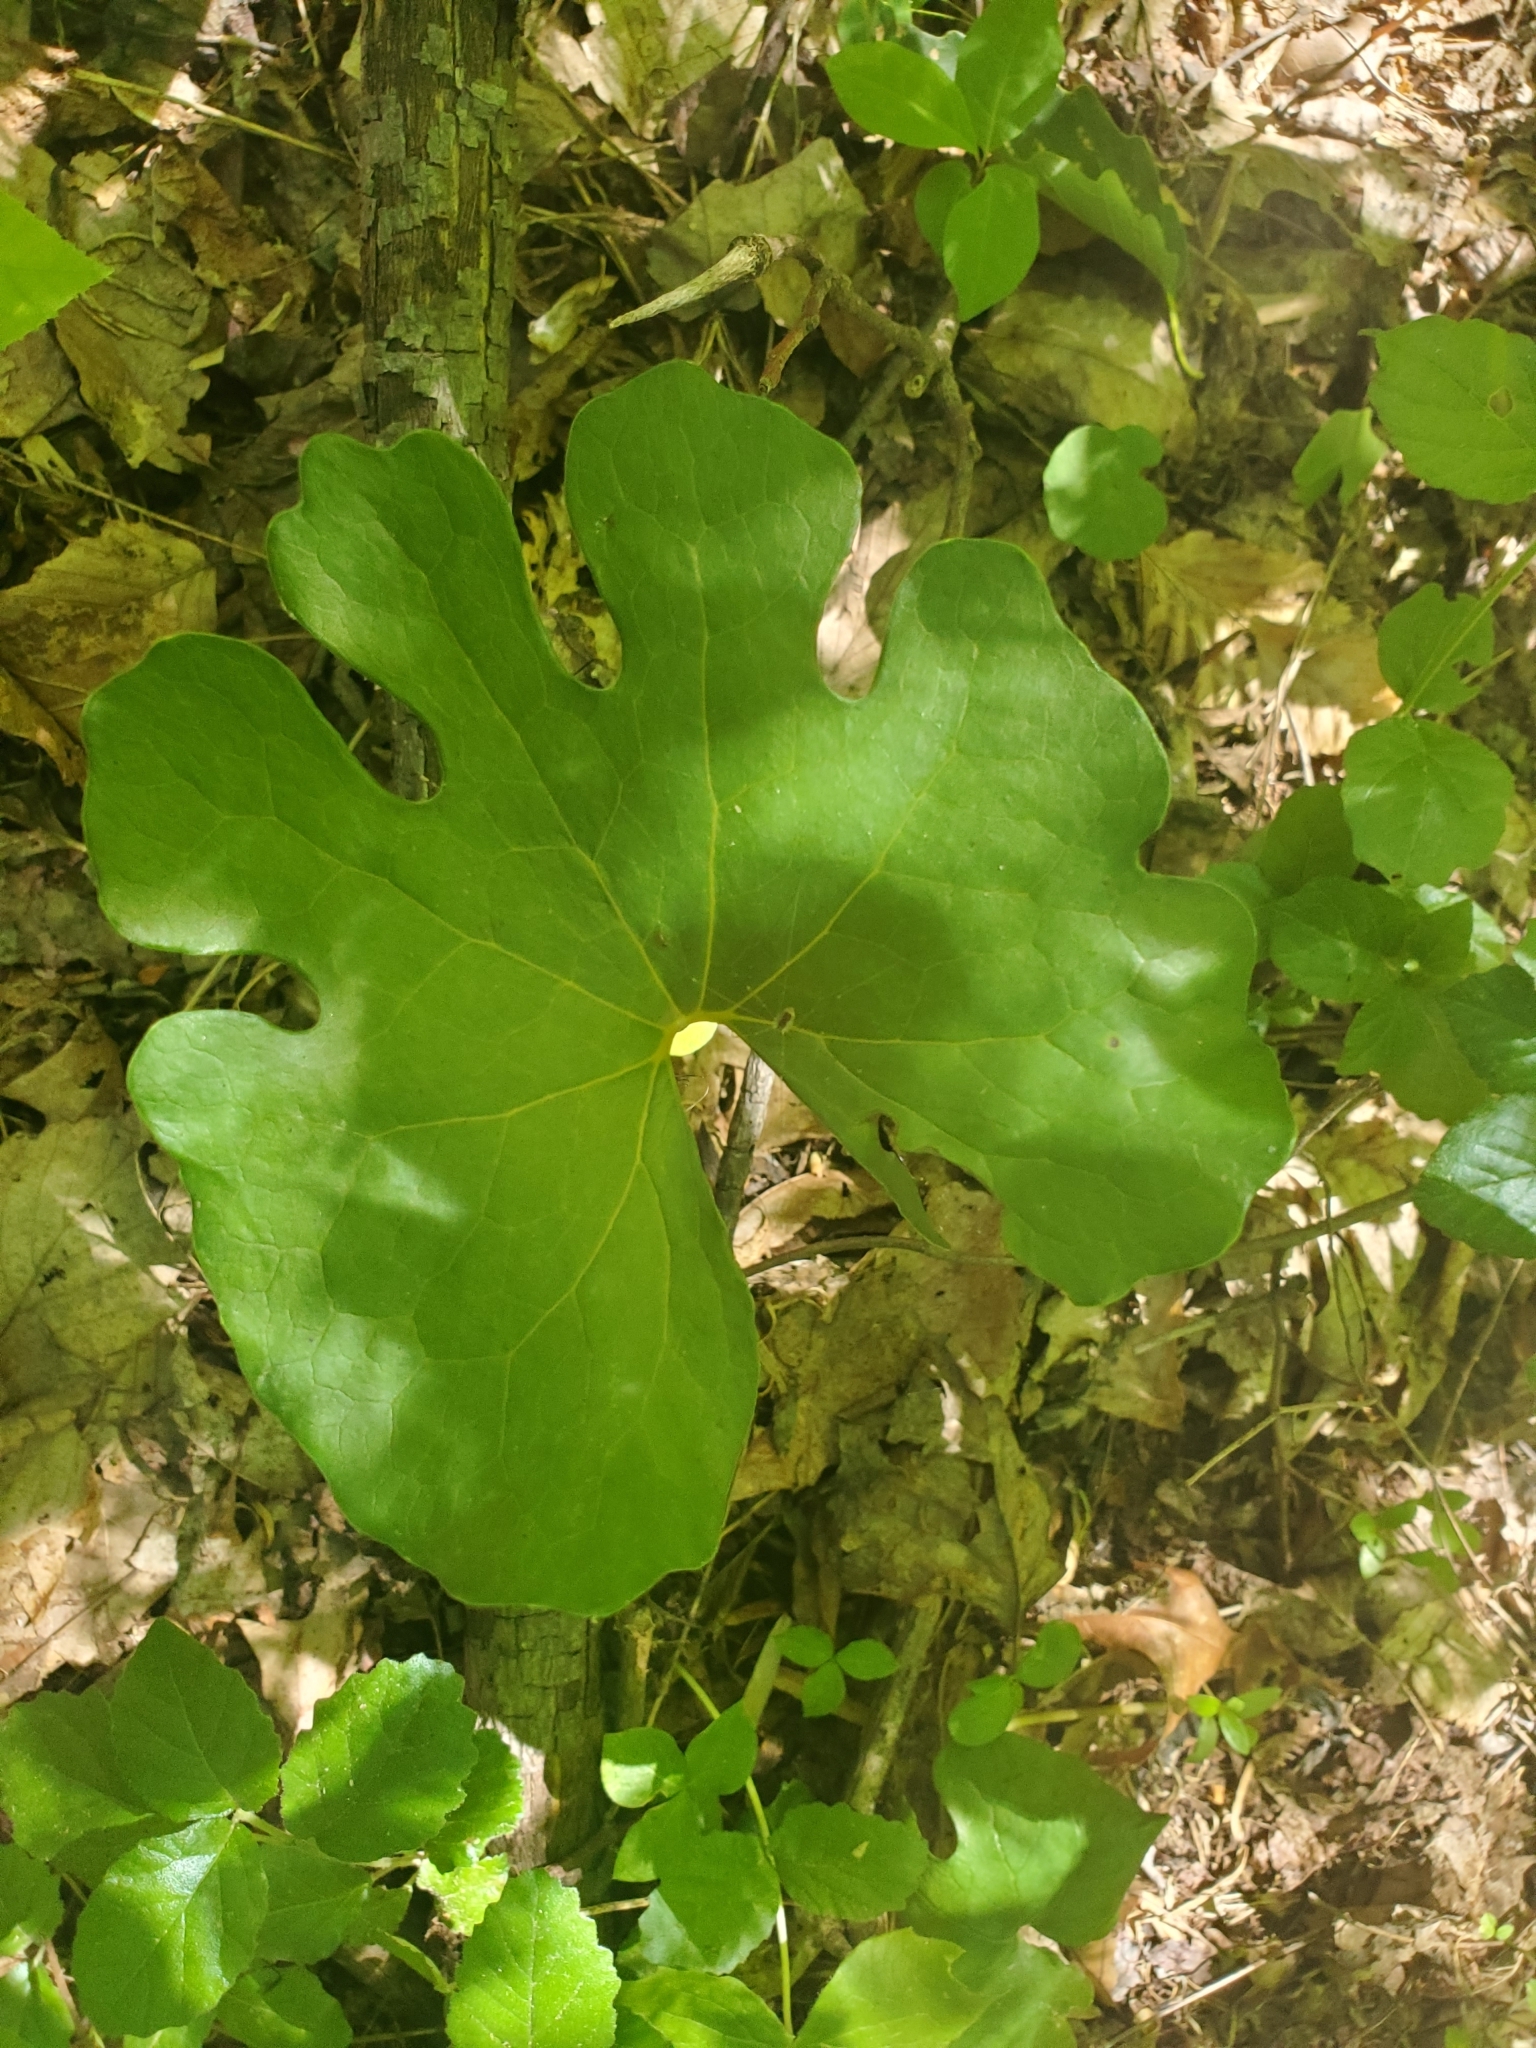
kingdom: Plantae
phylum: Tracheophyta
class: Magnoliopsida
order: Ranunculales
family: Papaveraceae
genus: Sanguinaria
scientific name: Sanguinaria canadensis
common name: Bloodroot
